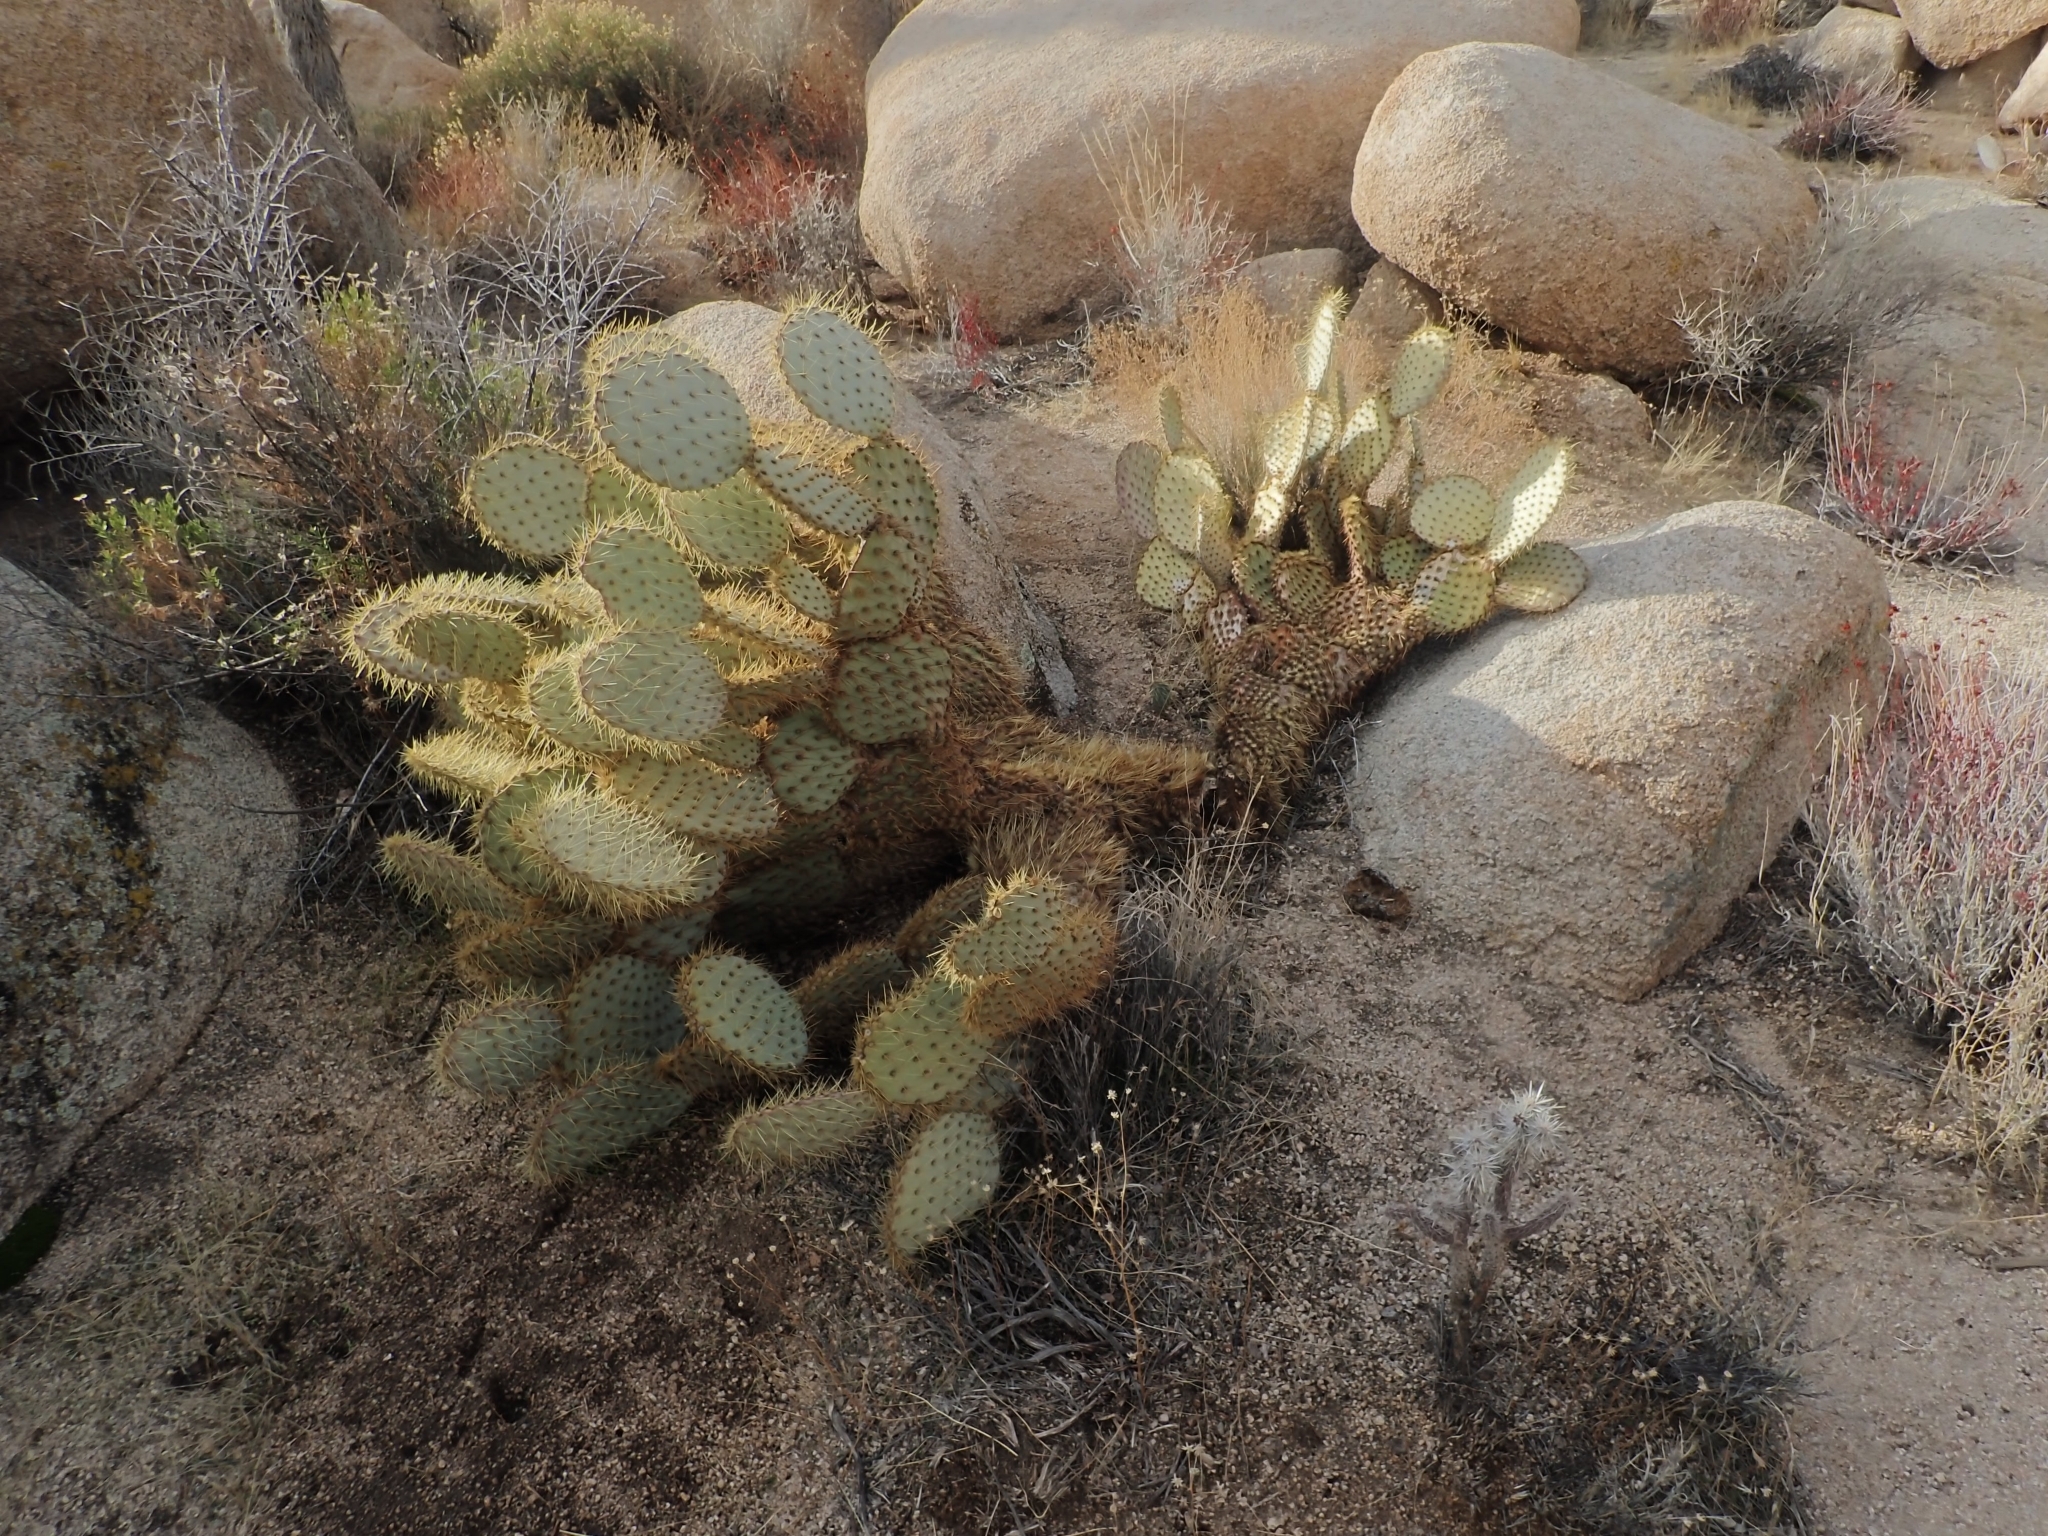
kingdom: Plantae
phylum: Tracheophyta
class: Magnoliopsida
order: Caryophyllales
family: Cactaceae
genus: Opuntia
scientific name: Opuntia chlorotica
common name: Dollar-joint prickly-pear
